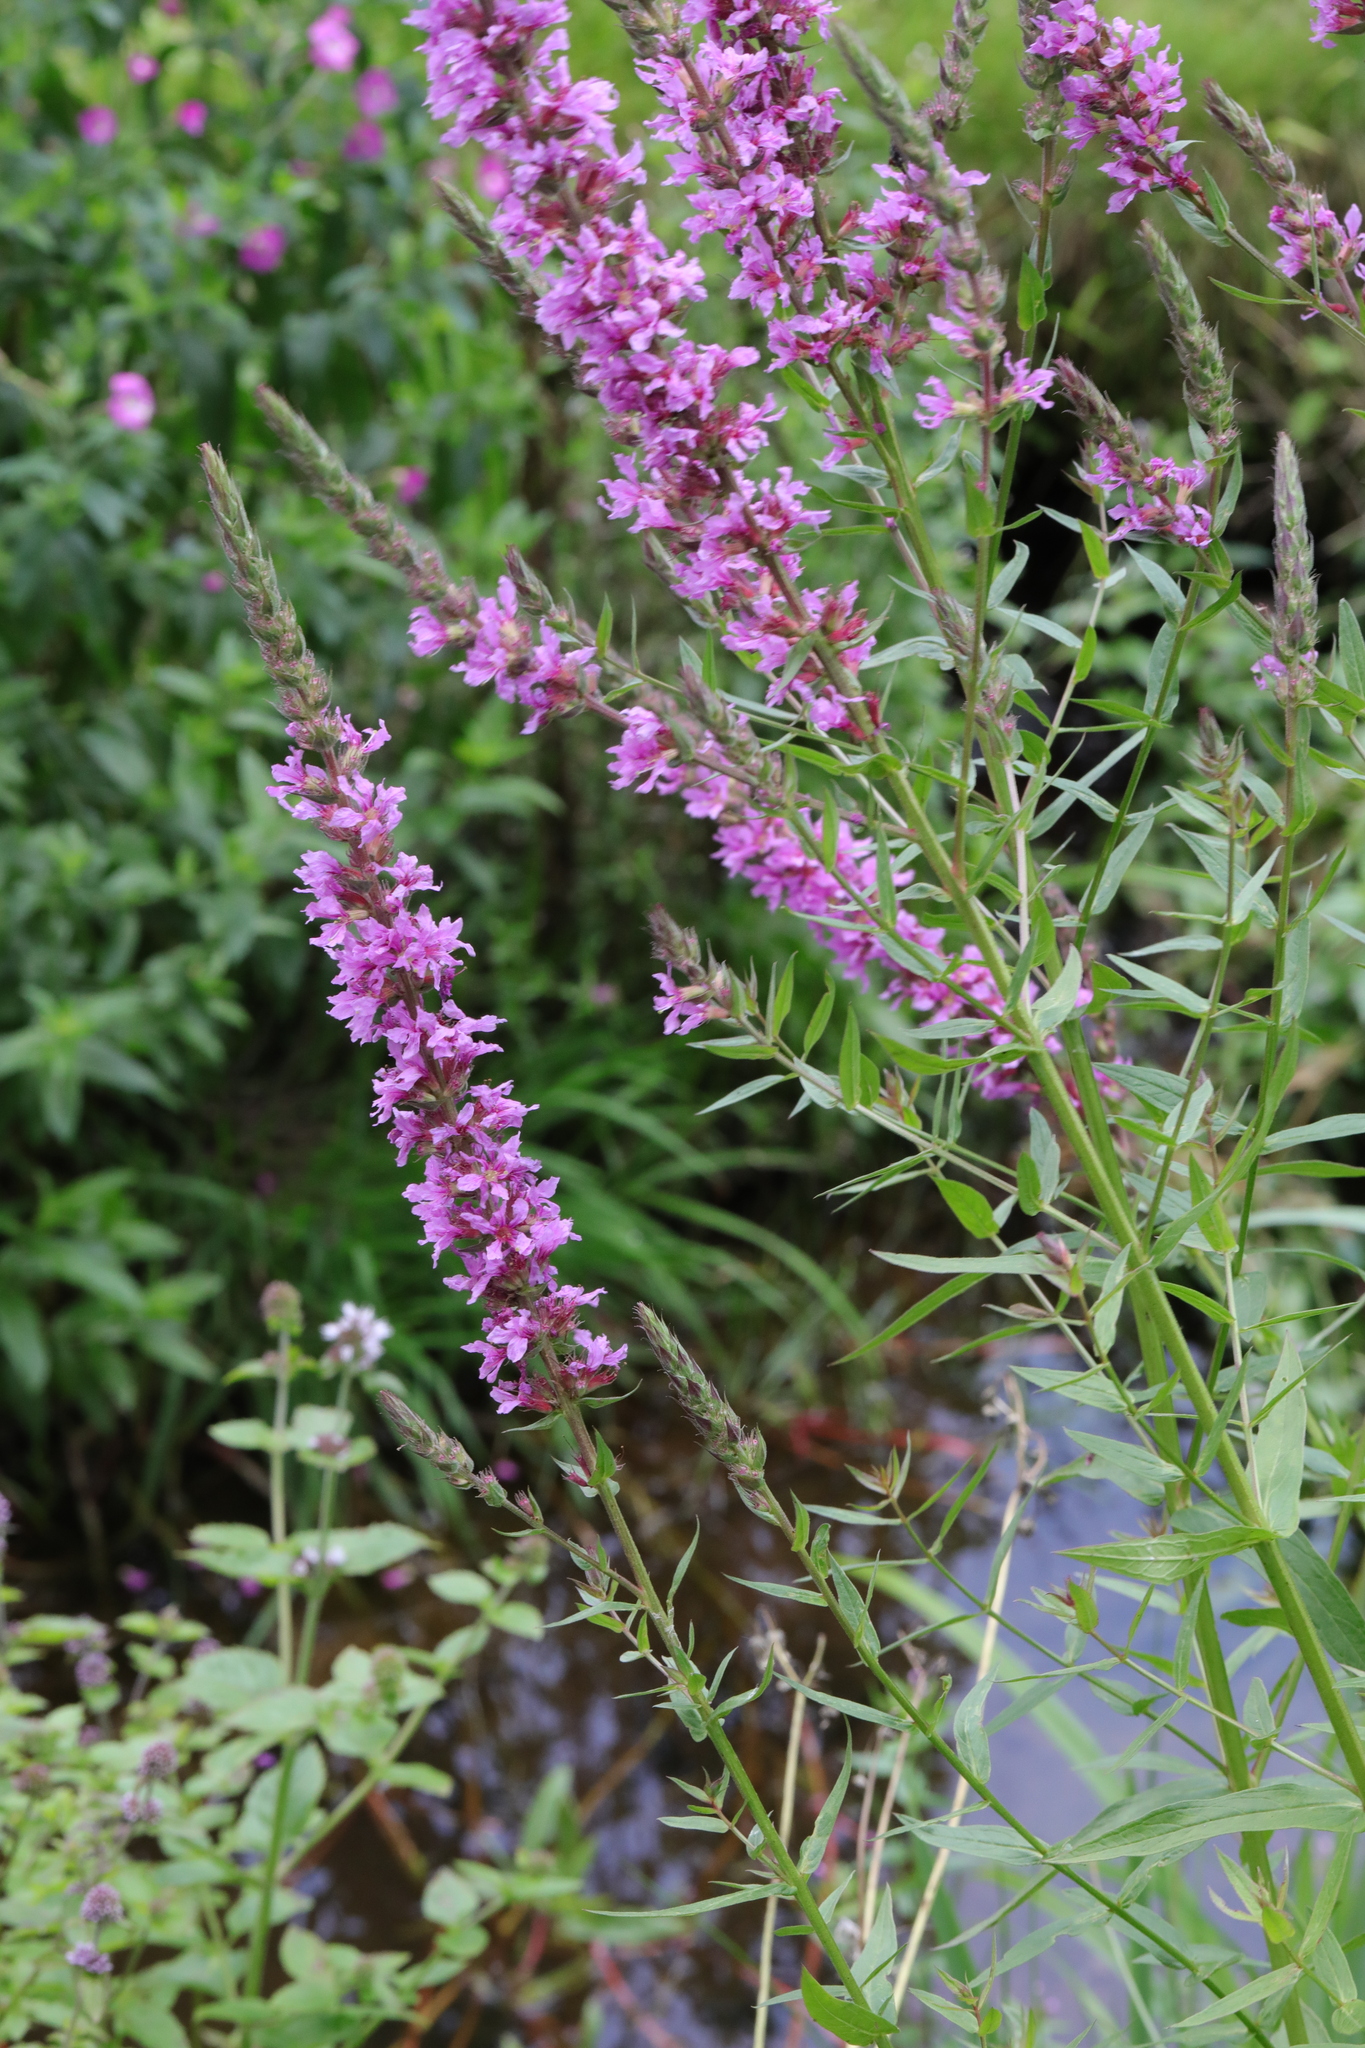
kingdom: Plantae
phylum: Tracheophyta
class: Magnoliopsida
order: Myrtales
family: Lythraceae
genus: Lythrum
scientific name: Lythrum salicaria
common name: Purple loosestrife
